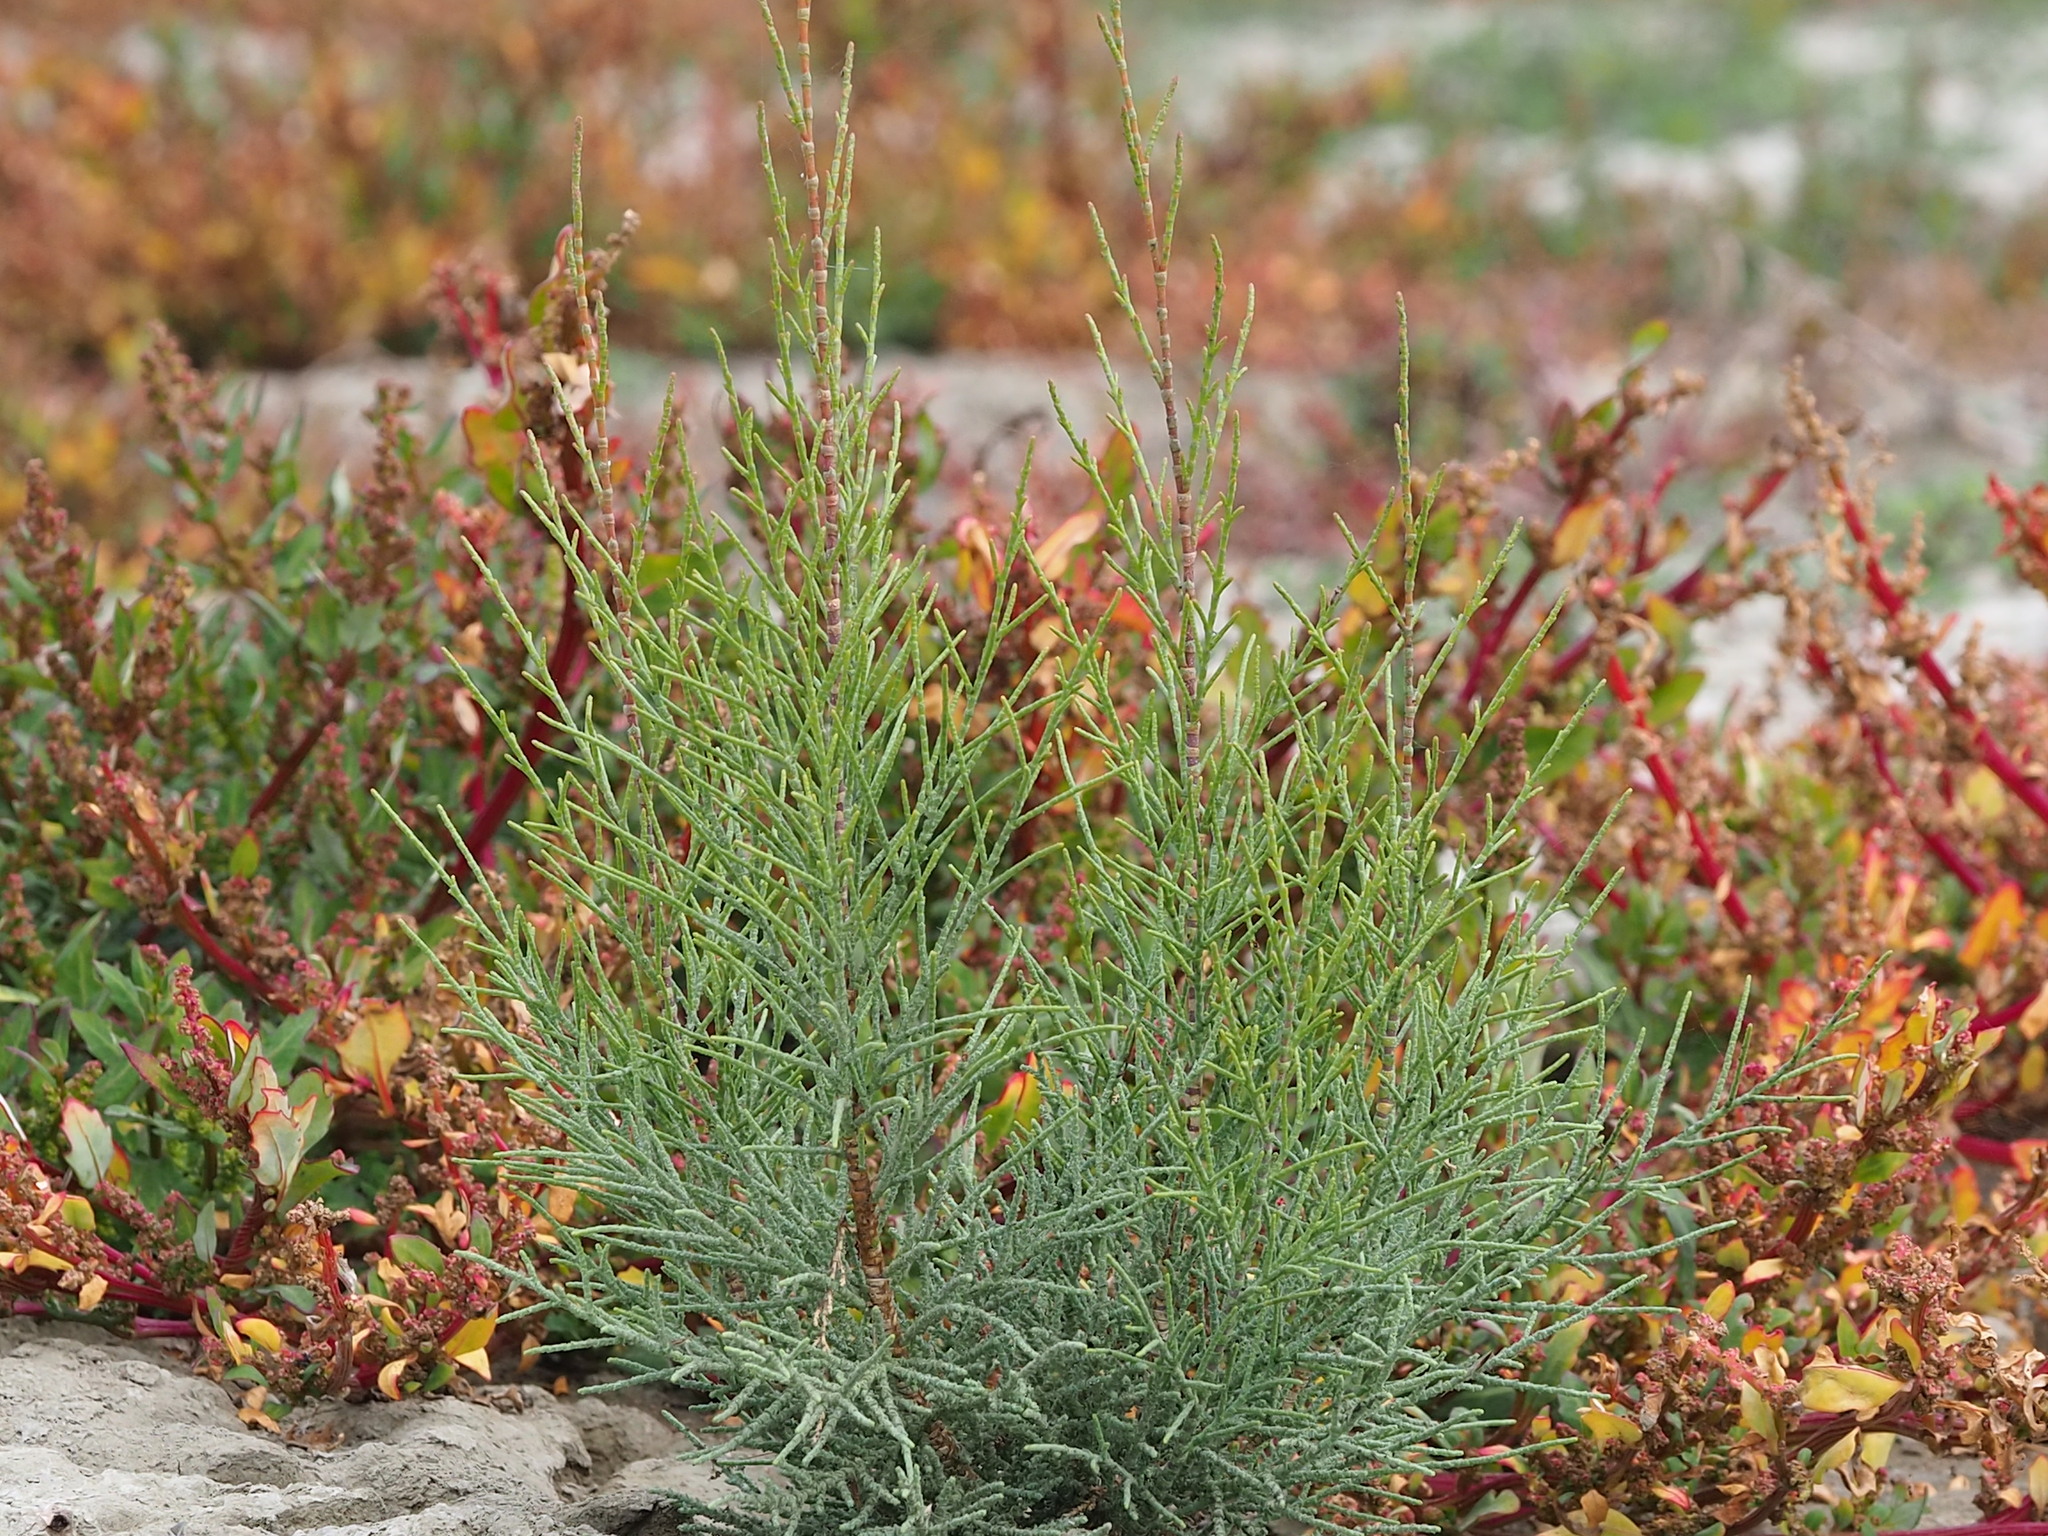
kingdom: Plantae
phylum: Tracheophyta
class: Magnoliopsida
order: Caryophyllales
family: Tamaricaceae
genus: Tamarix
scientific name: Tamarix aphylla
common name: Athel tamarisk
